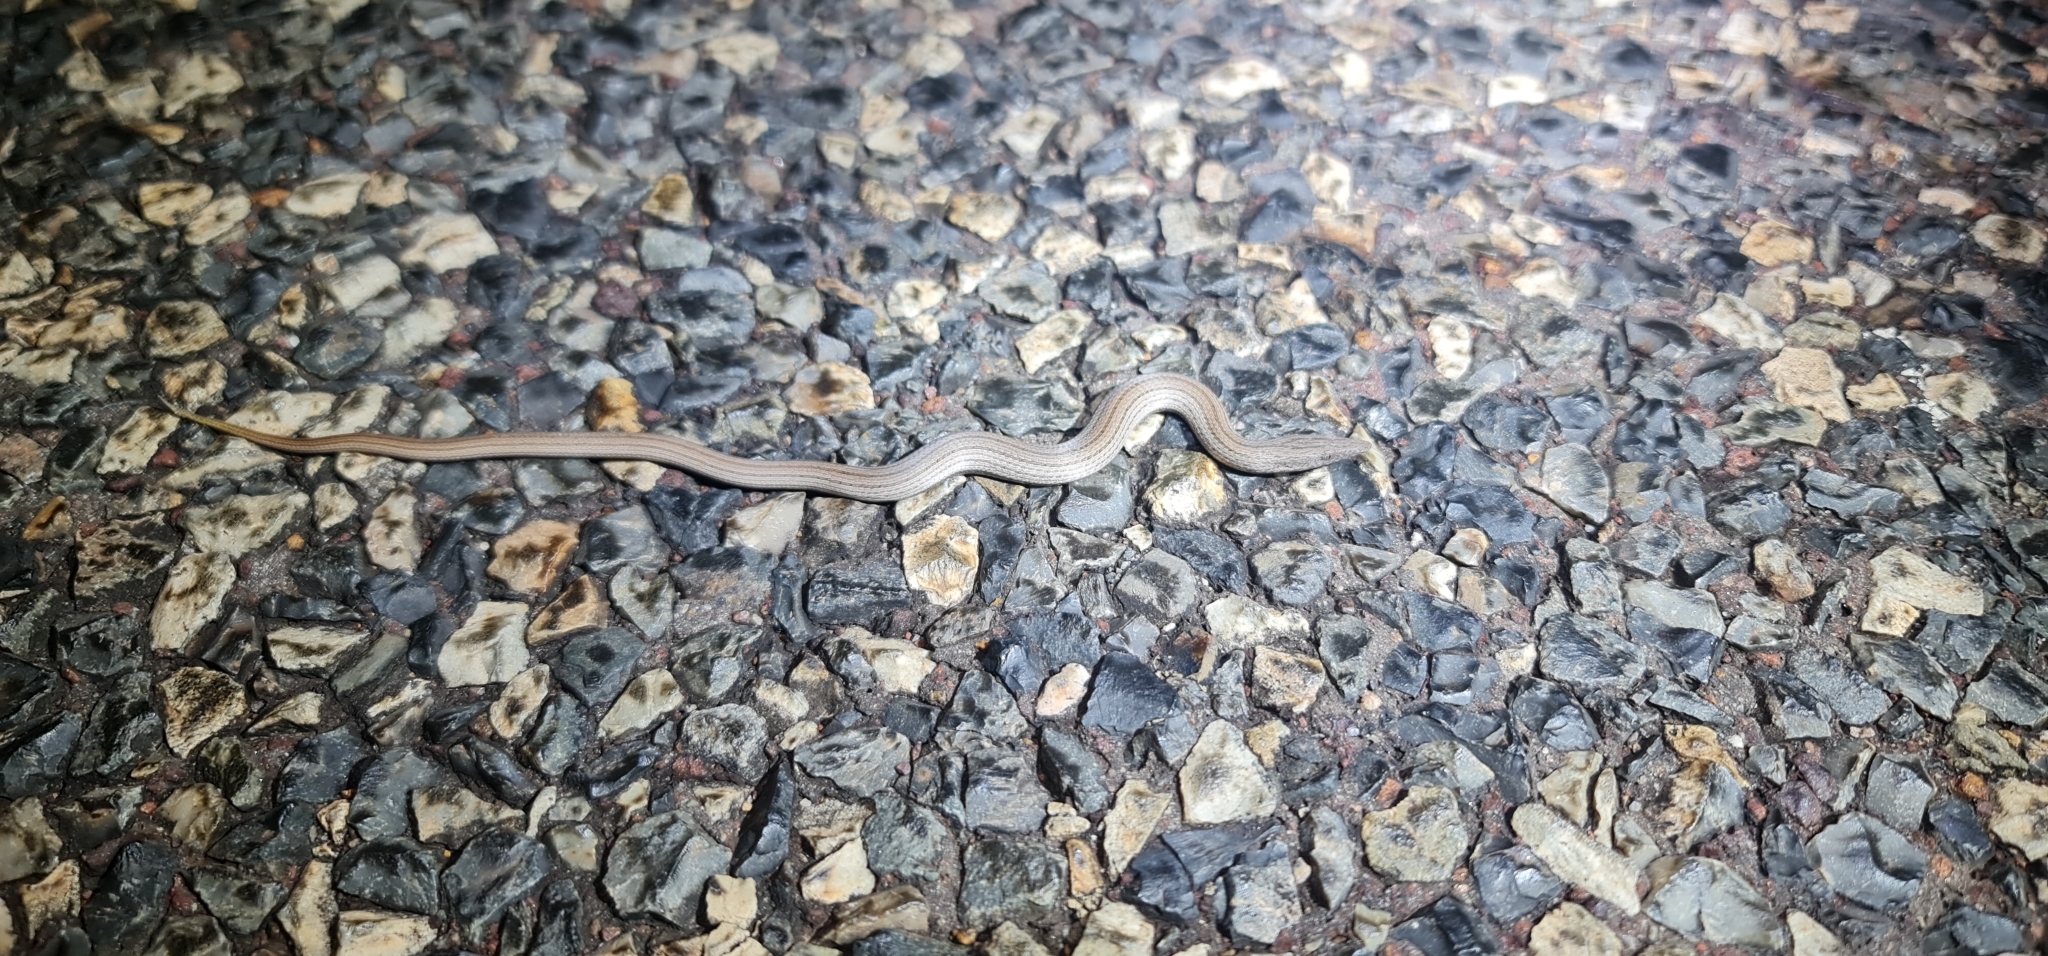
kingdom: Animalia
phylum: Chordata
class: Squamata
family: Pygopodidae
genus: Lialis
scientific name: Lialis burtonis
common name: Burton's legless lizard
